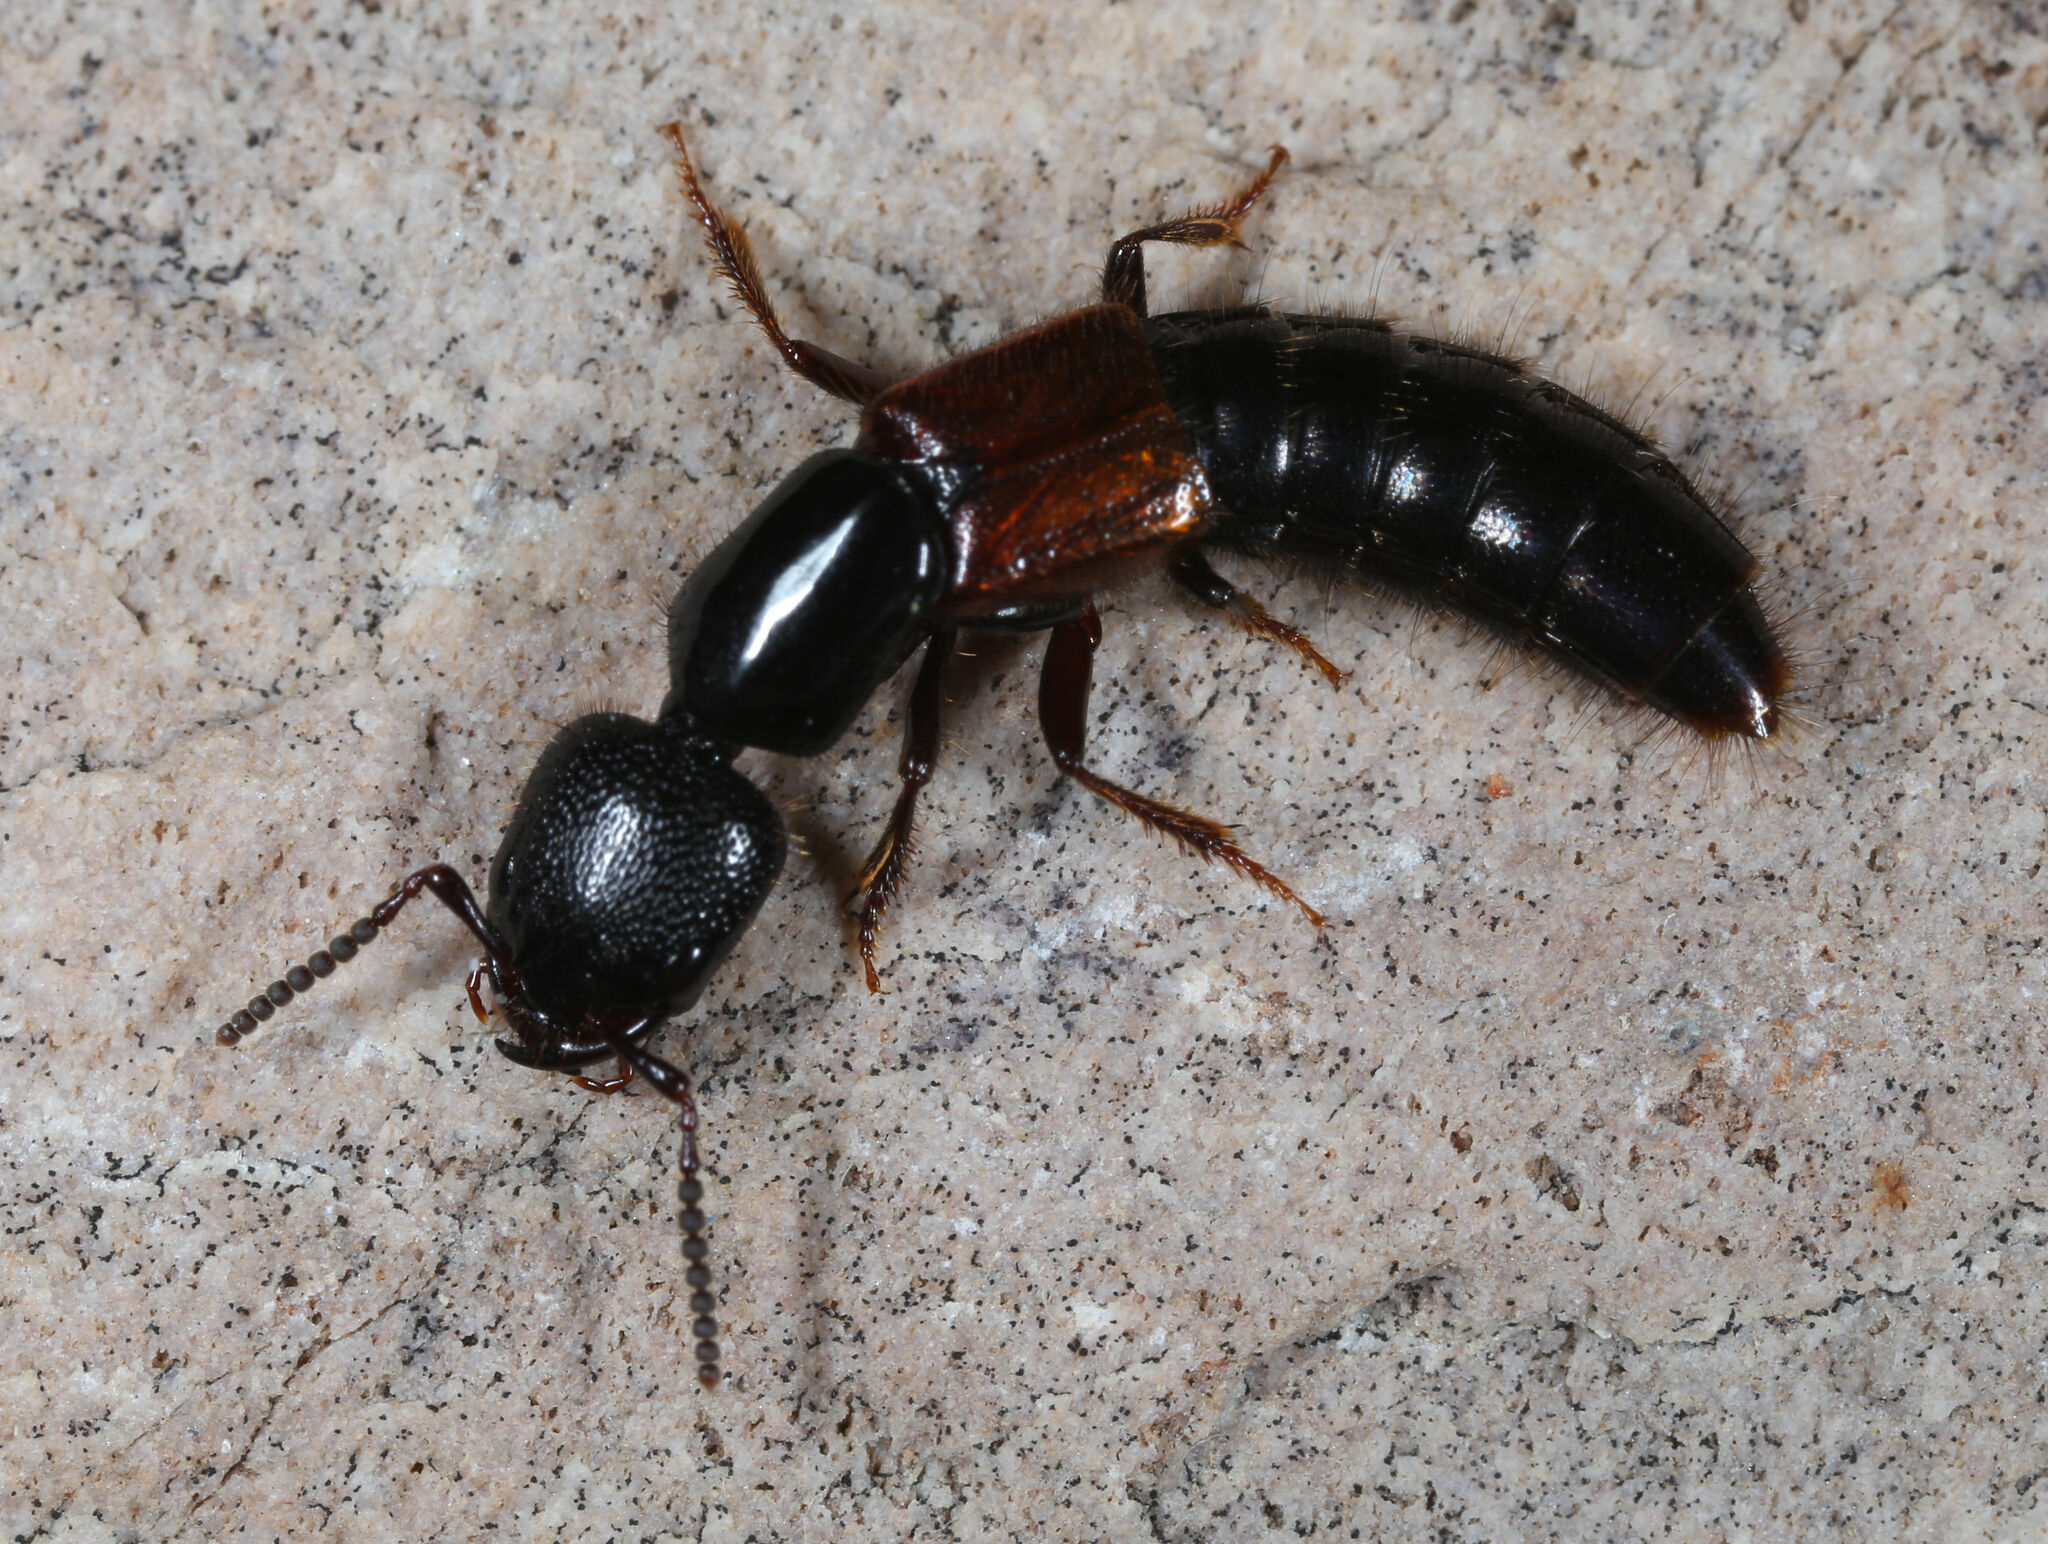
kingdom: Animalia
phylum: Arthropoda
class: Insecta
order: Coleoptera
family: Staphylinidae
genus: Thyreocephalus
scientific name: Thyreocephalus arizonicus
